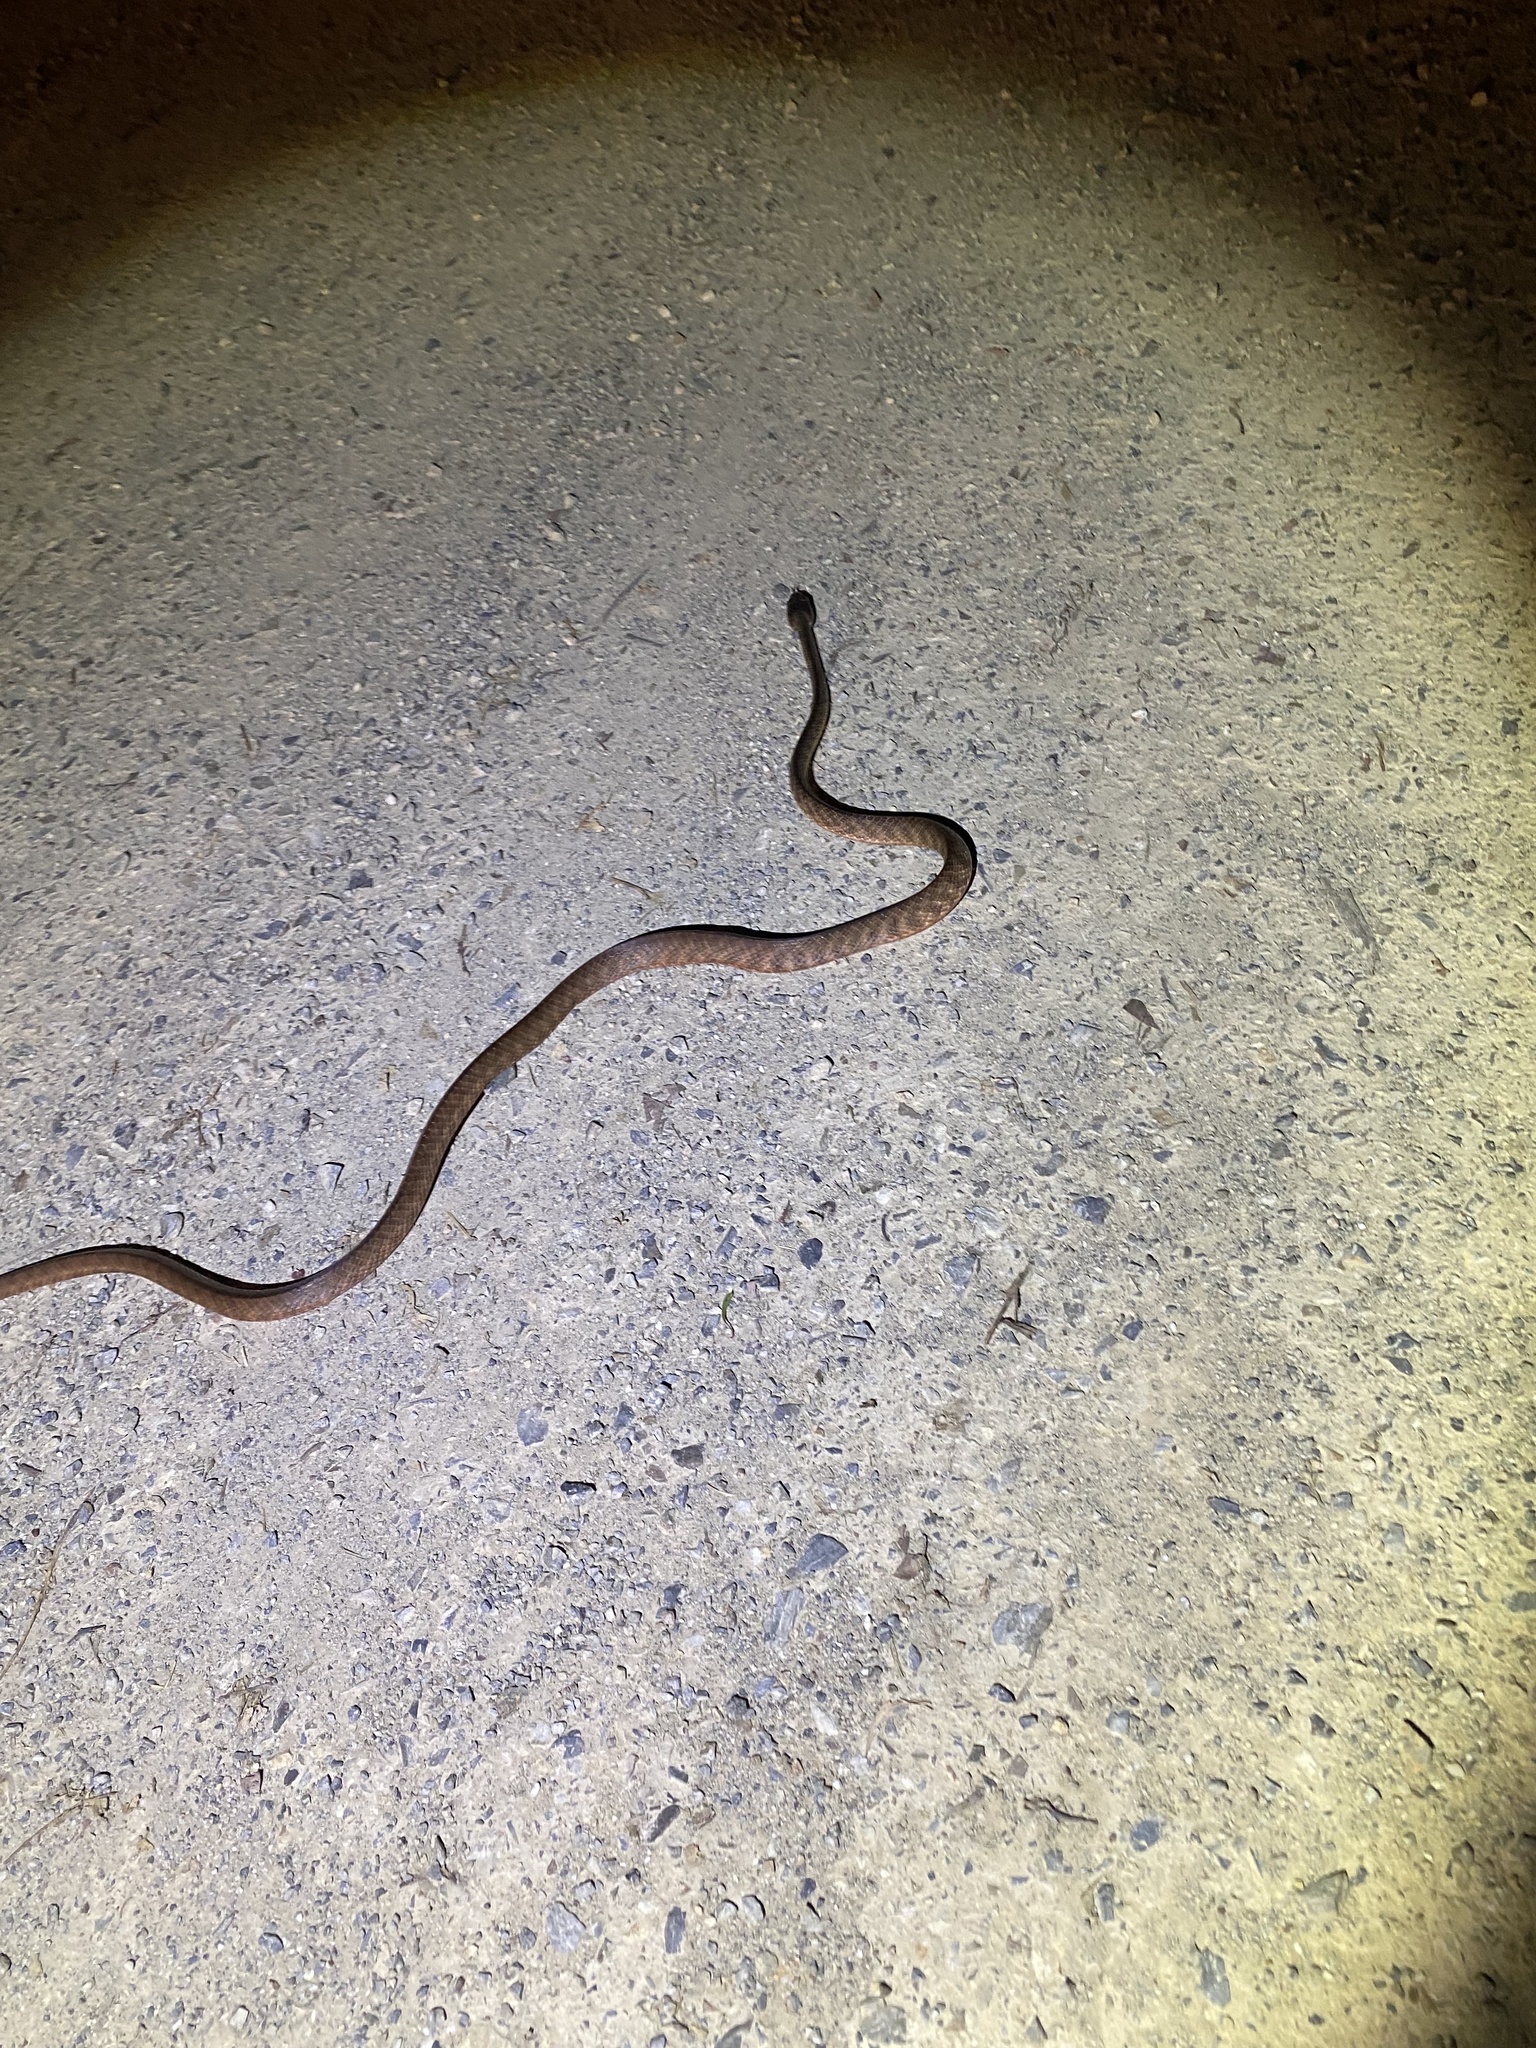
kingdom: Animalia
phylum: Chordata
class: Squamata
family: Colubridae
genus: Boiga
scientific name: Boiga irregularis
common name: Brown tree snake
